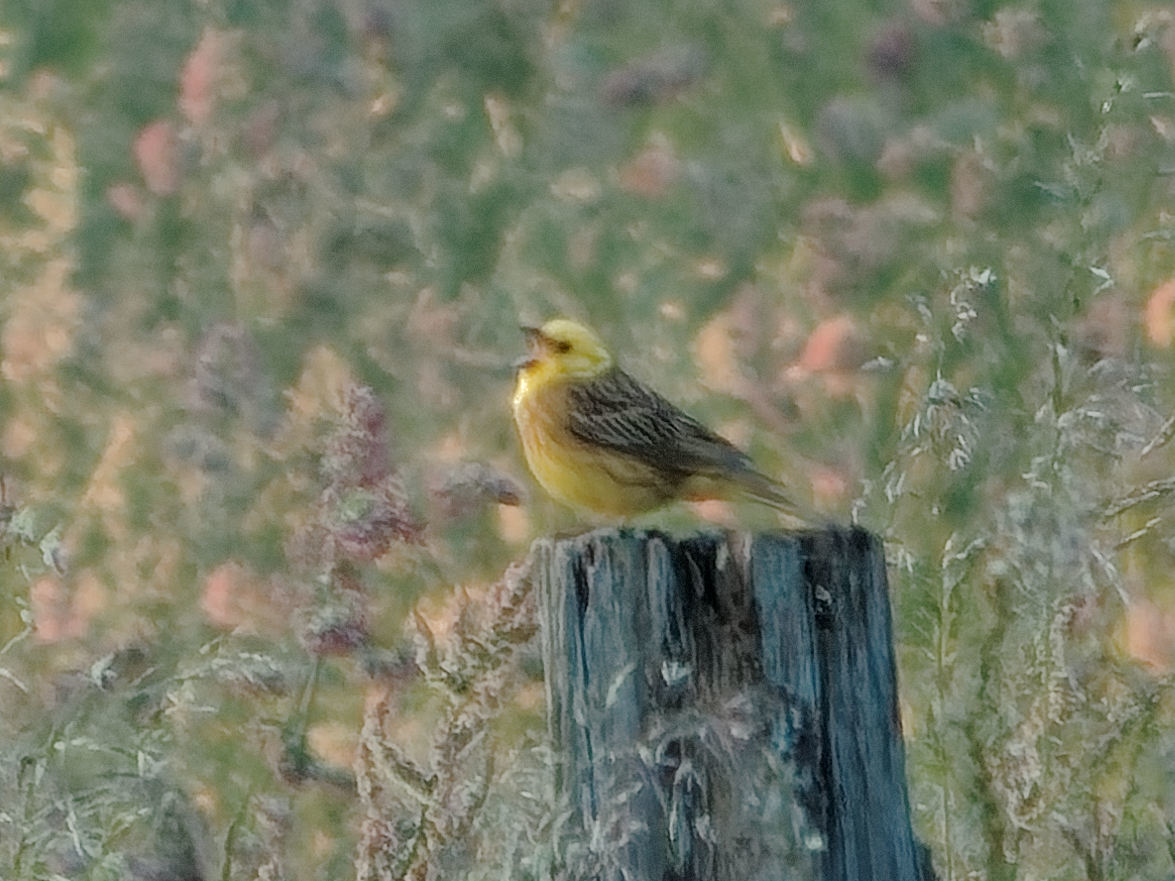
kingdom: Animalia
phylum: Chordata
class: Aves
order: Passeriformes
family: Emberizidae
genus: Emberiza
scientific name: Emberiza citrinella
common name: Yellowhammer
